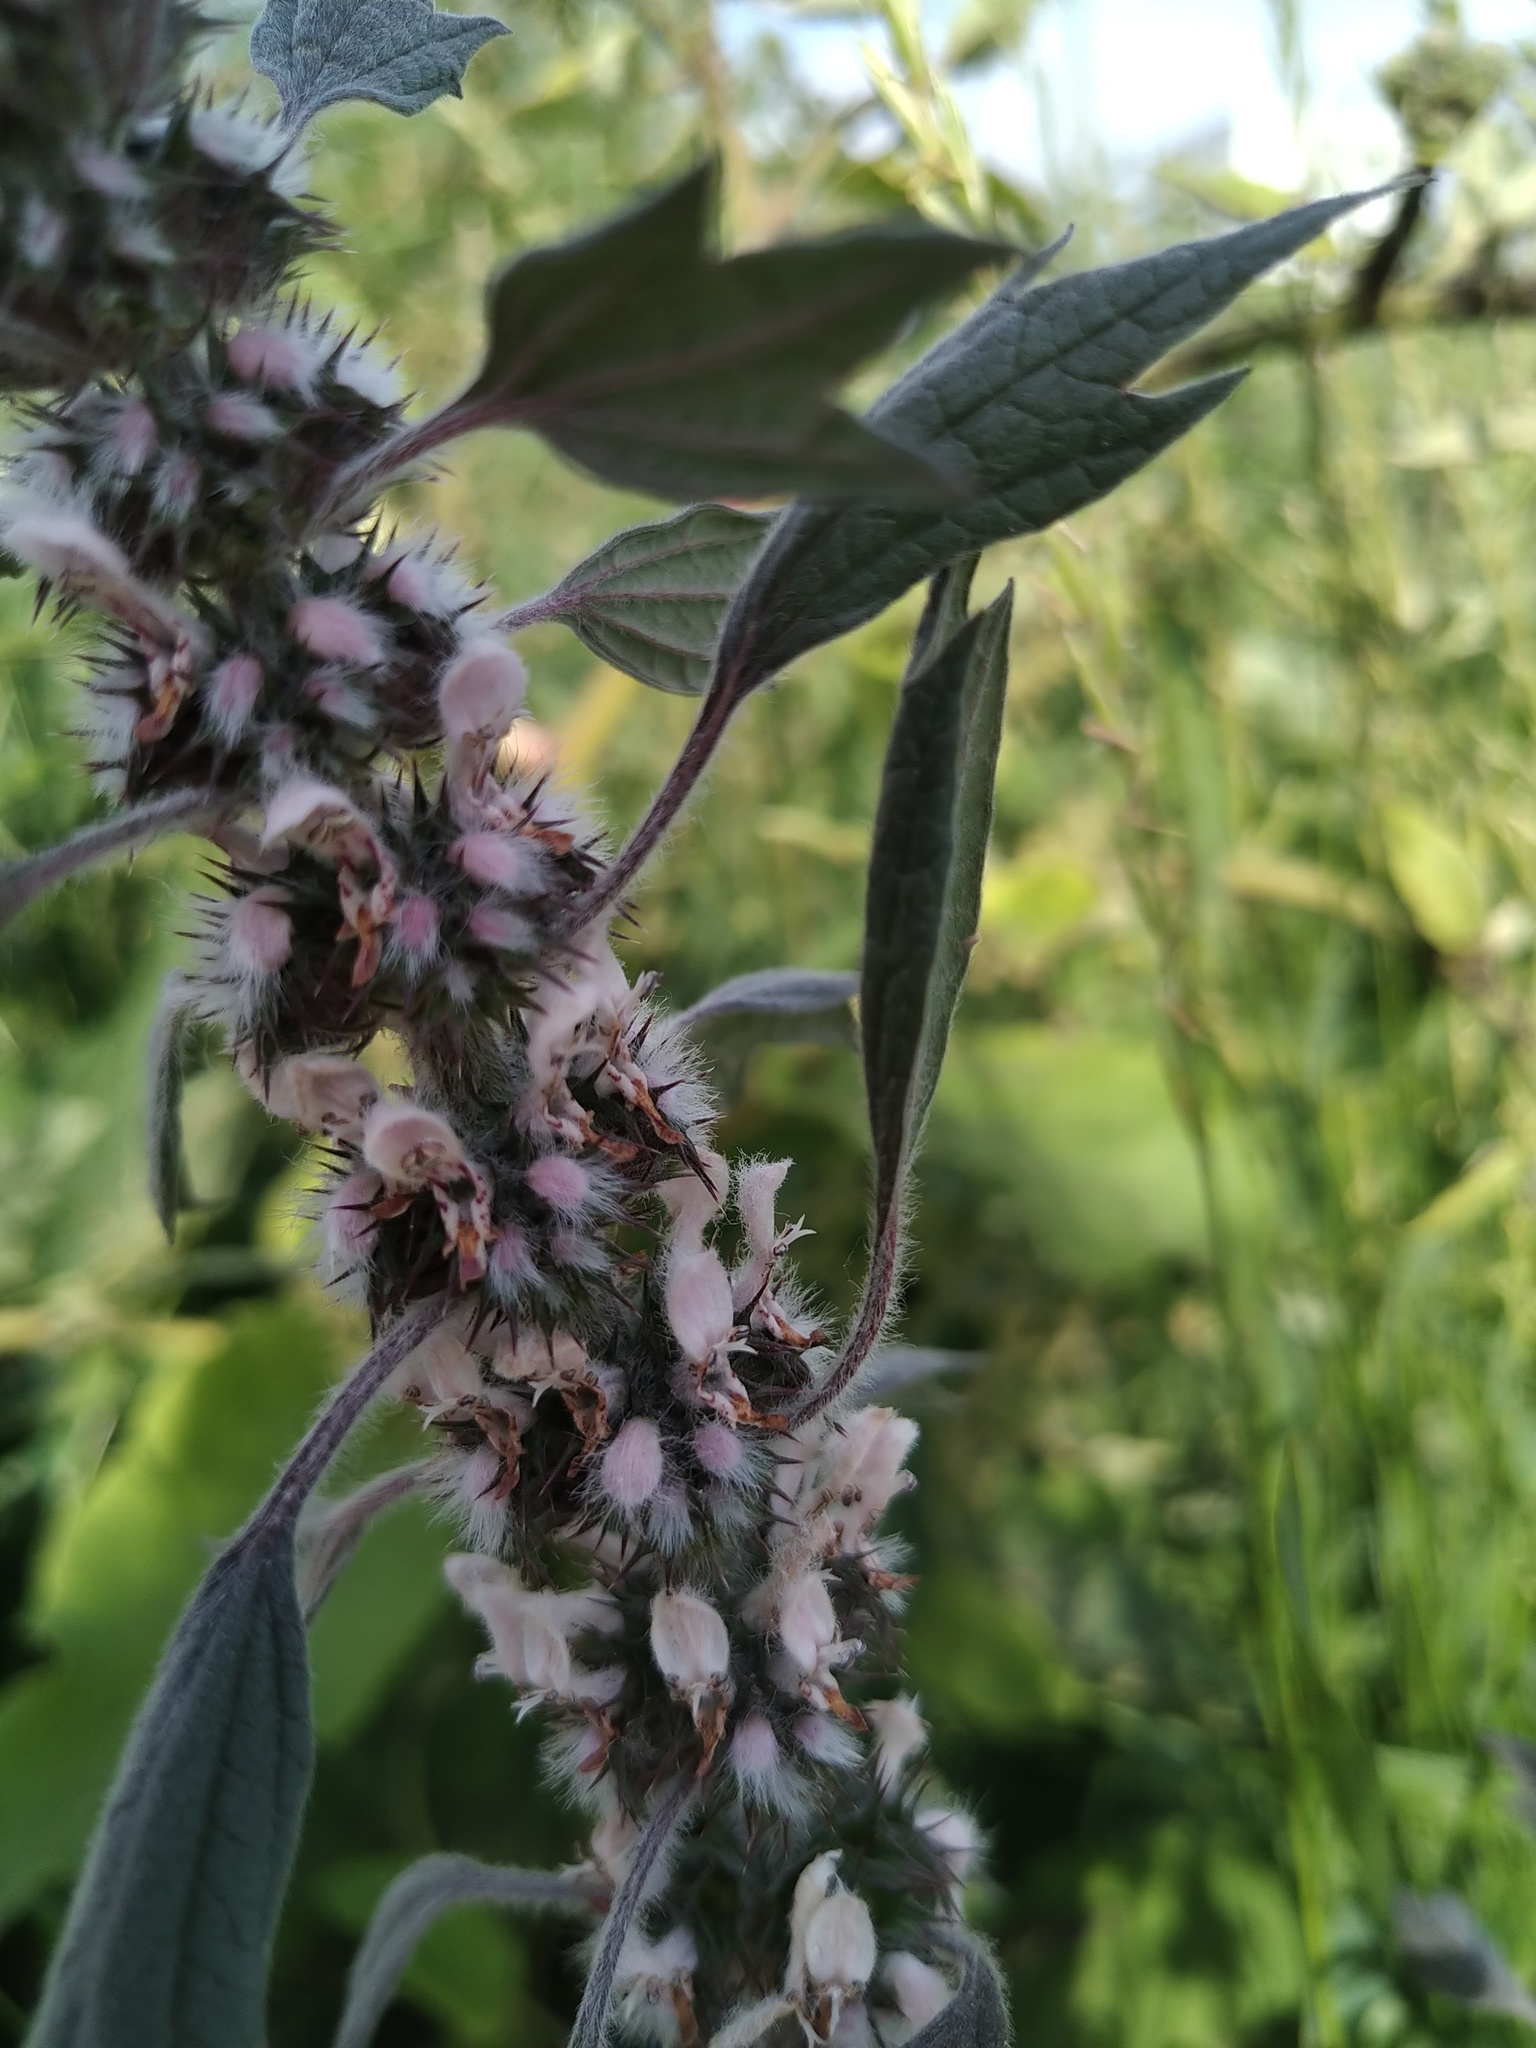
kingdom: Plantae
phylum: Tracheophyta
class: Magnoliopsida
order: Lamiales
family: Lamiaceae
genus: Leonurus
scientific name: Leonurus quinquelobatus
